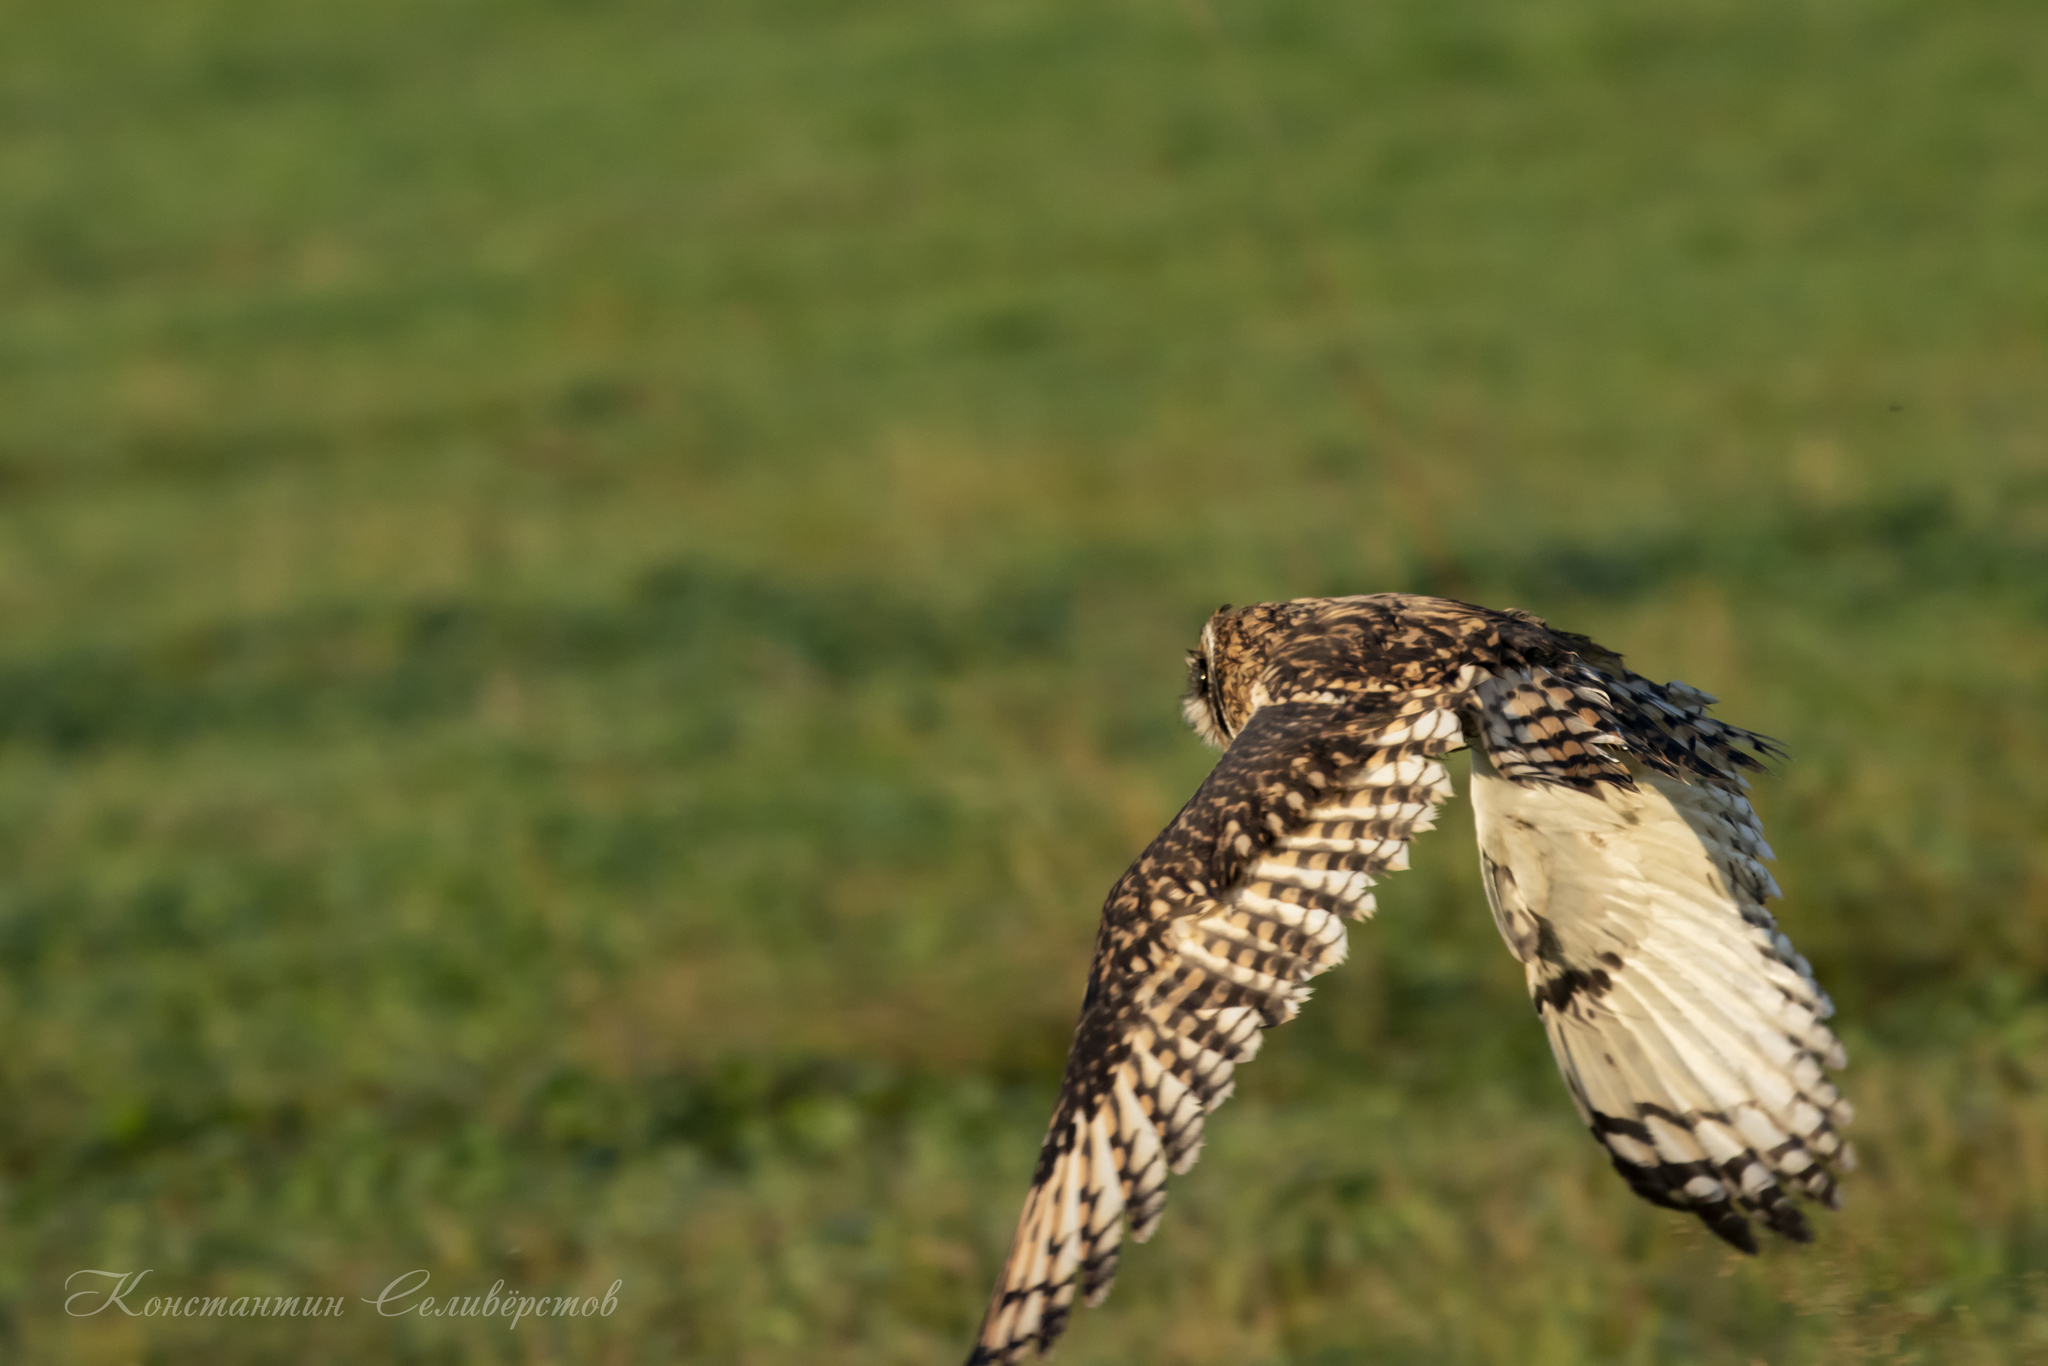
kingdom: Animalia
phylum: Chordata
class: Aves
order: Strigiformes
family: Strigidae
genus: Asio
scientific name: Asio flammeus
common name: Short-eared owl
